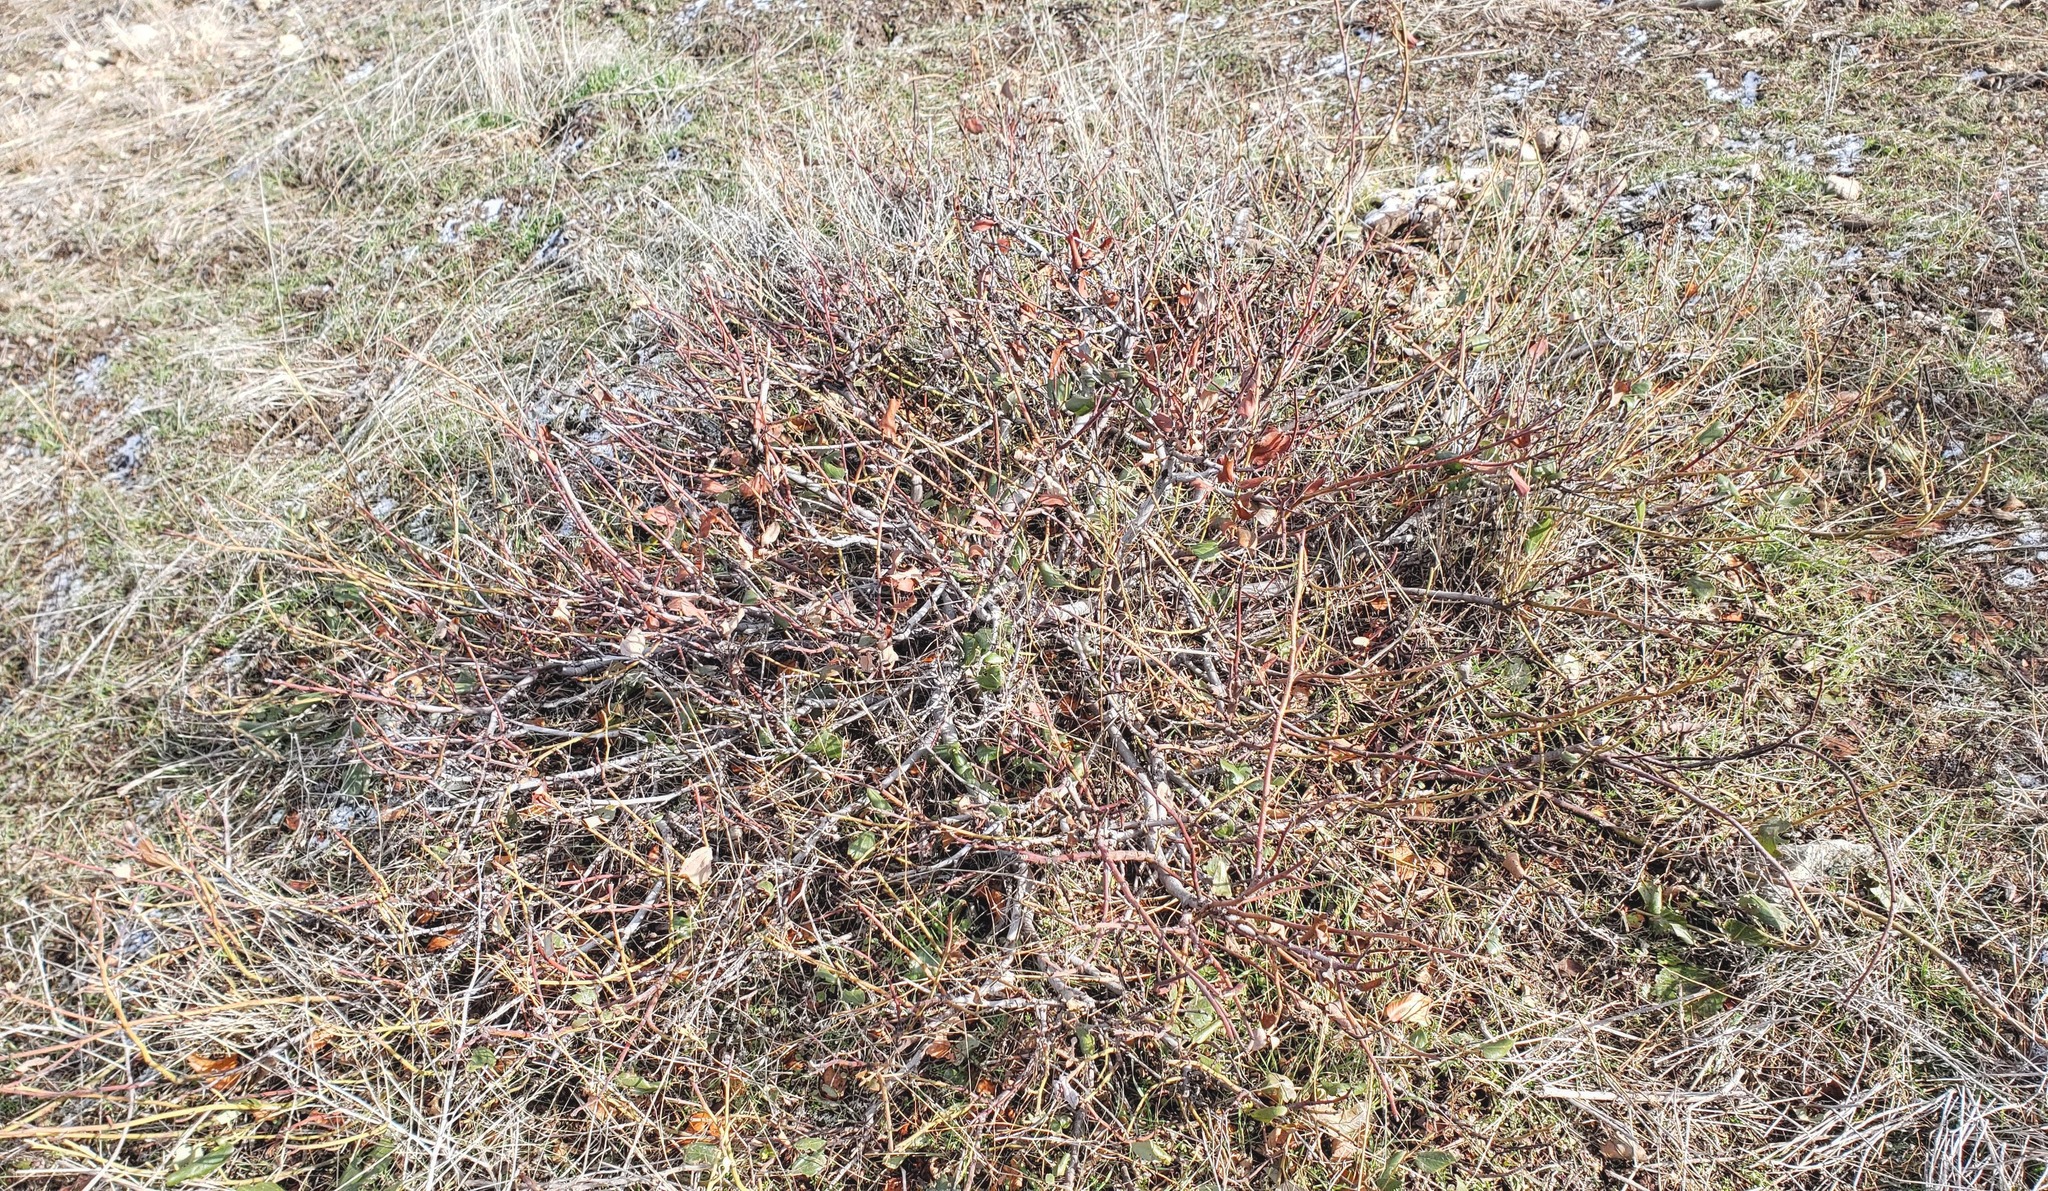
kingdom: Plantae
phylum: Tracheophyta
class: Magnoliopsida
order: Rosales
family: Rhamnaceae
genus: Ceanothus
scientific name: Ceanothus velutinus
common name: Snowbrush
